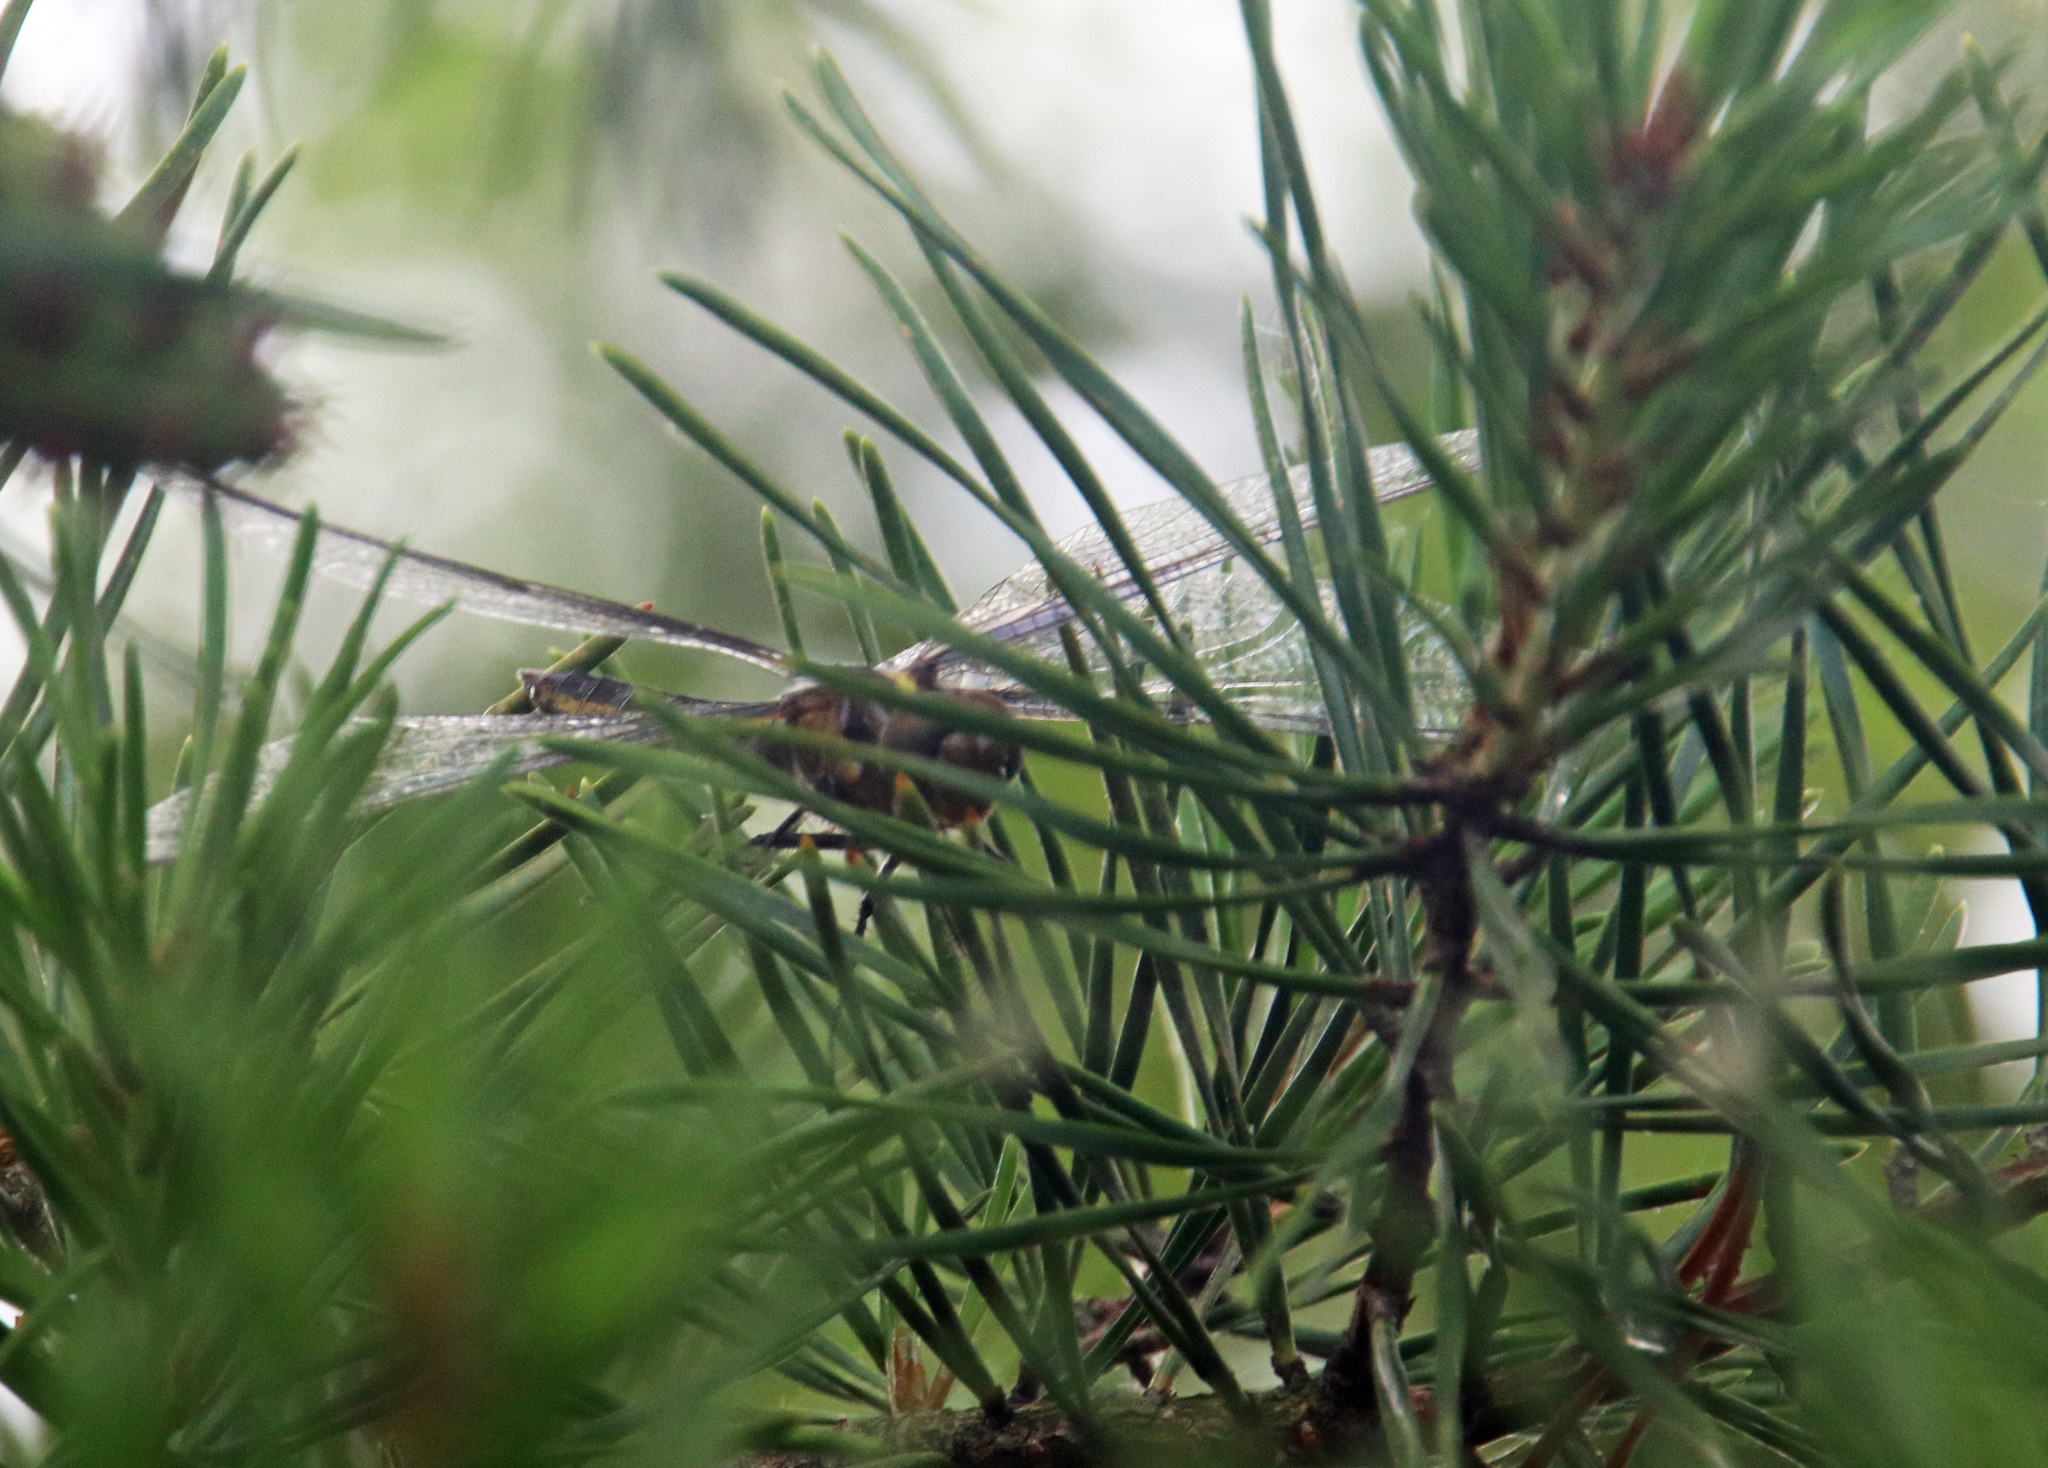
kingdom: Animalia
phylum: Arthropoda
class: Insecta
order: Odonata
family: Libellulidae
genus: Libellula
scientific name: Libellula luctuosa
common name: Widow skimmer
